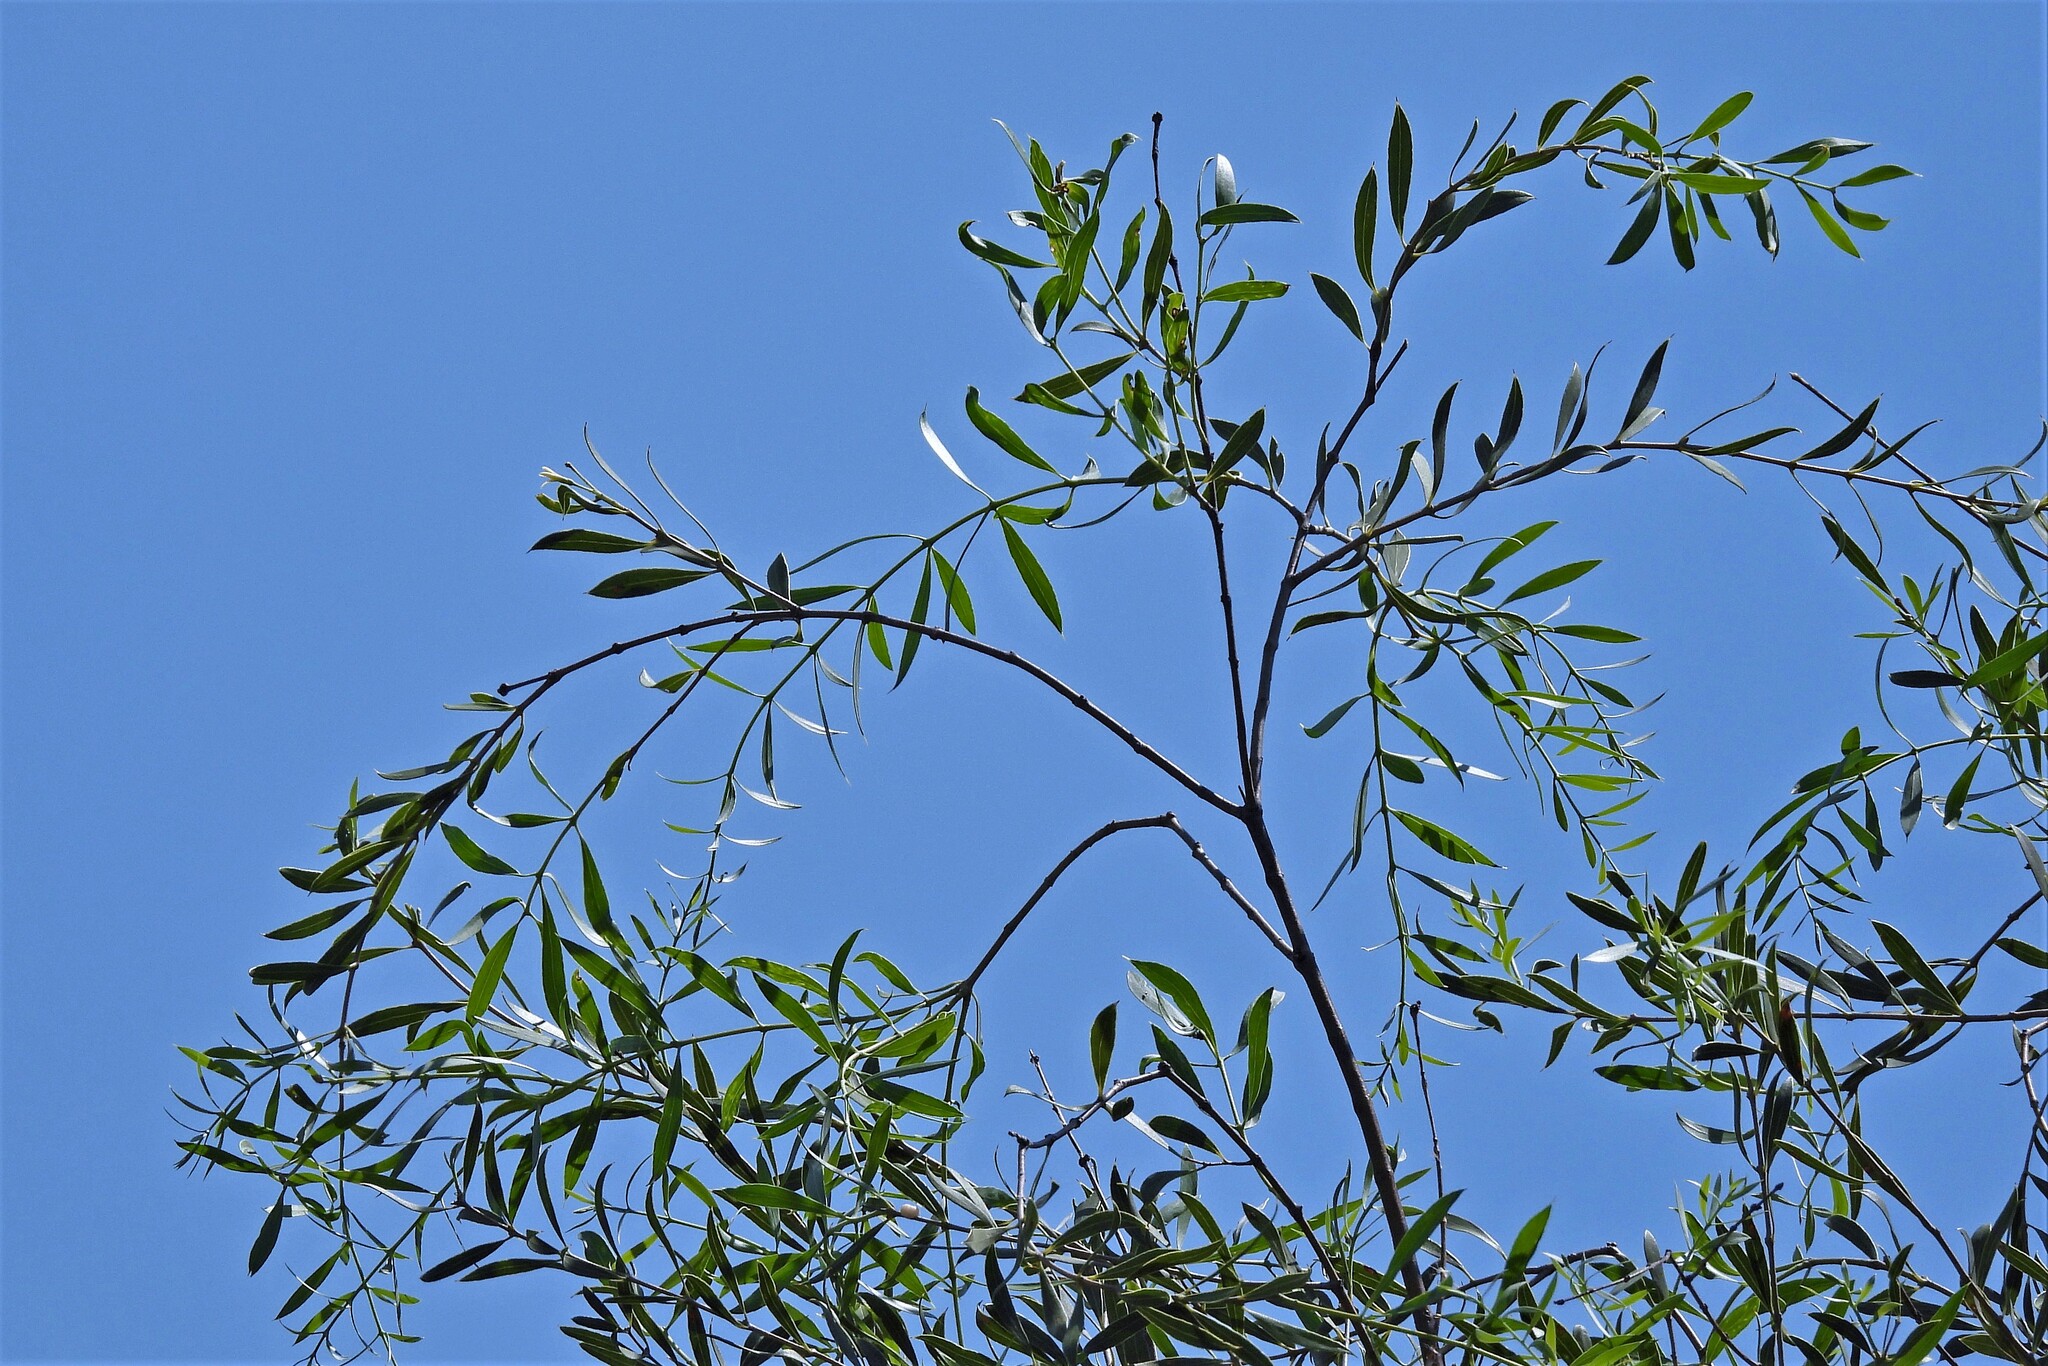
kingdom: Plantae
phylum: Tracheophyta
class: Magnoliopsida
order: Gentianales
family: Apocynaceae
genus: Aspidosperma
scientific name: Aspidosperma quebracho-blanco
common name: White quebracho
